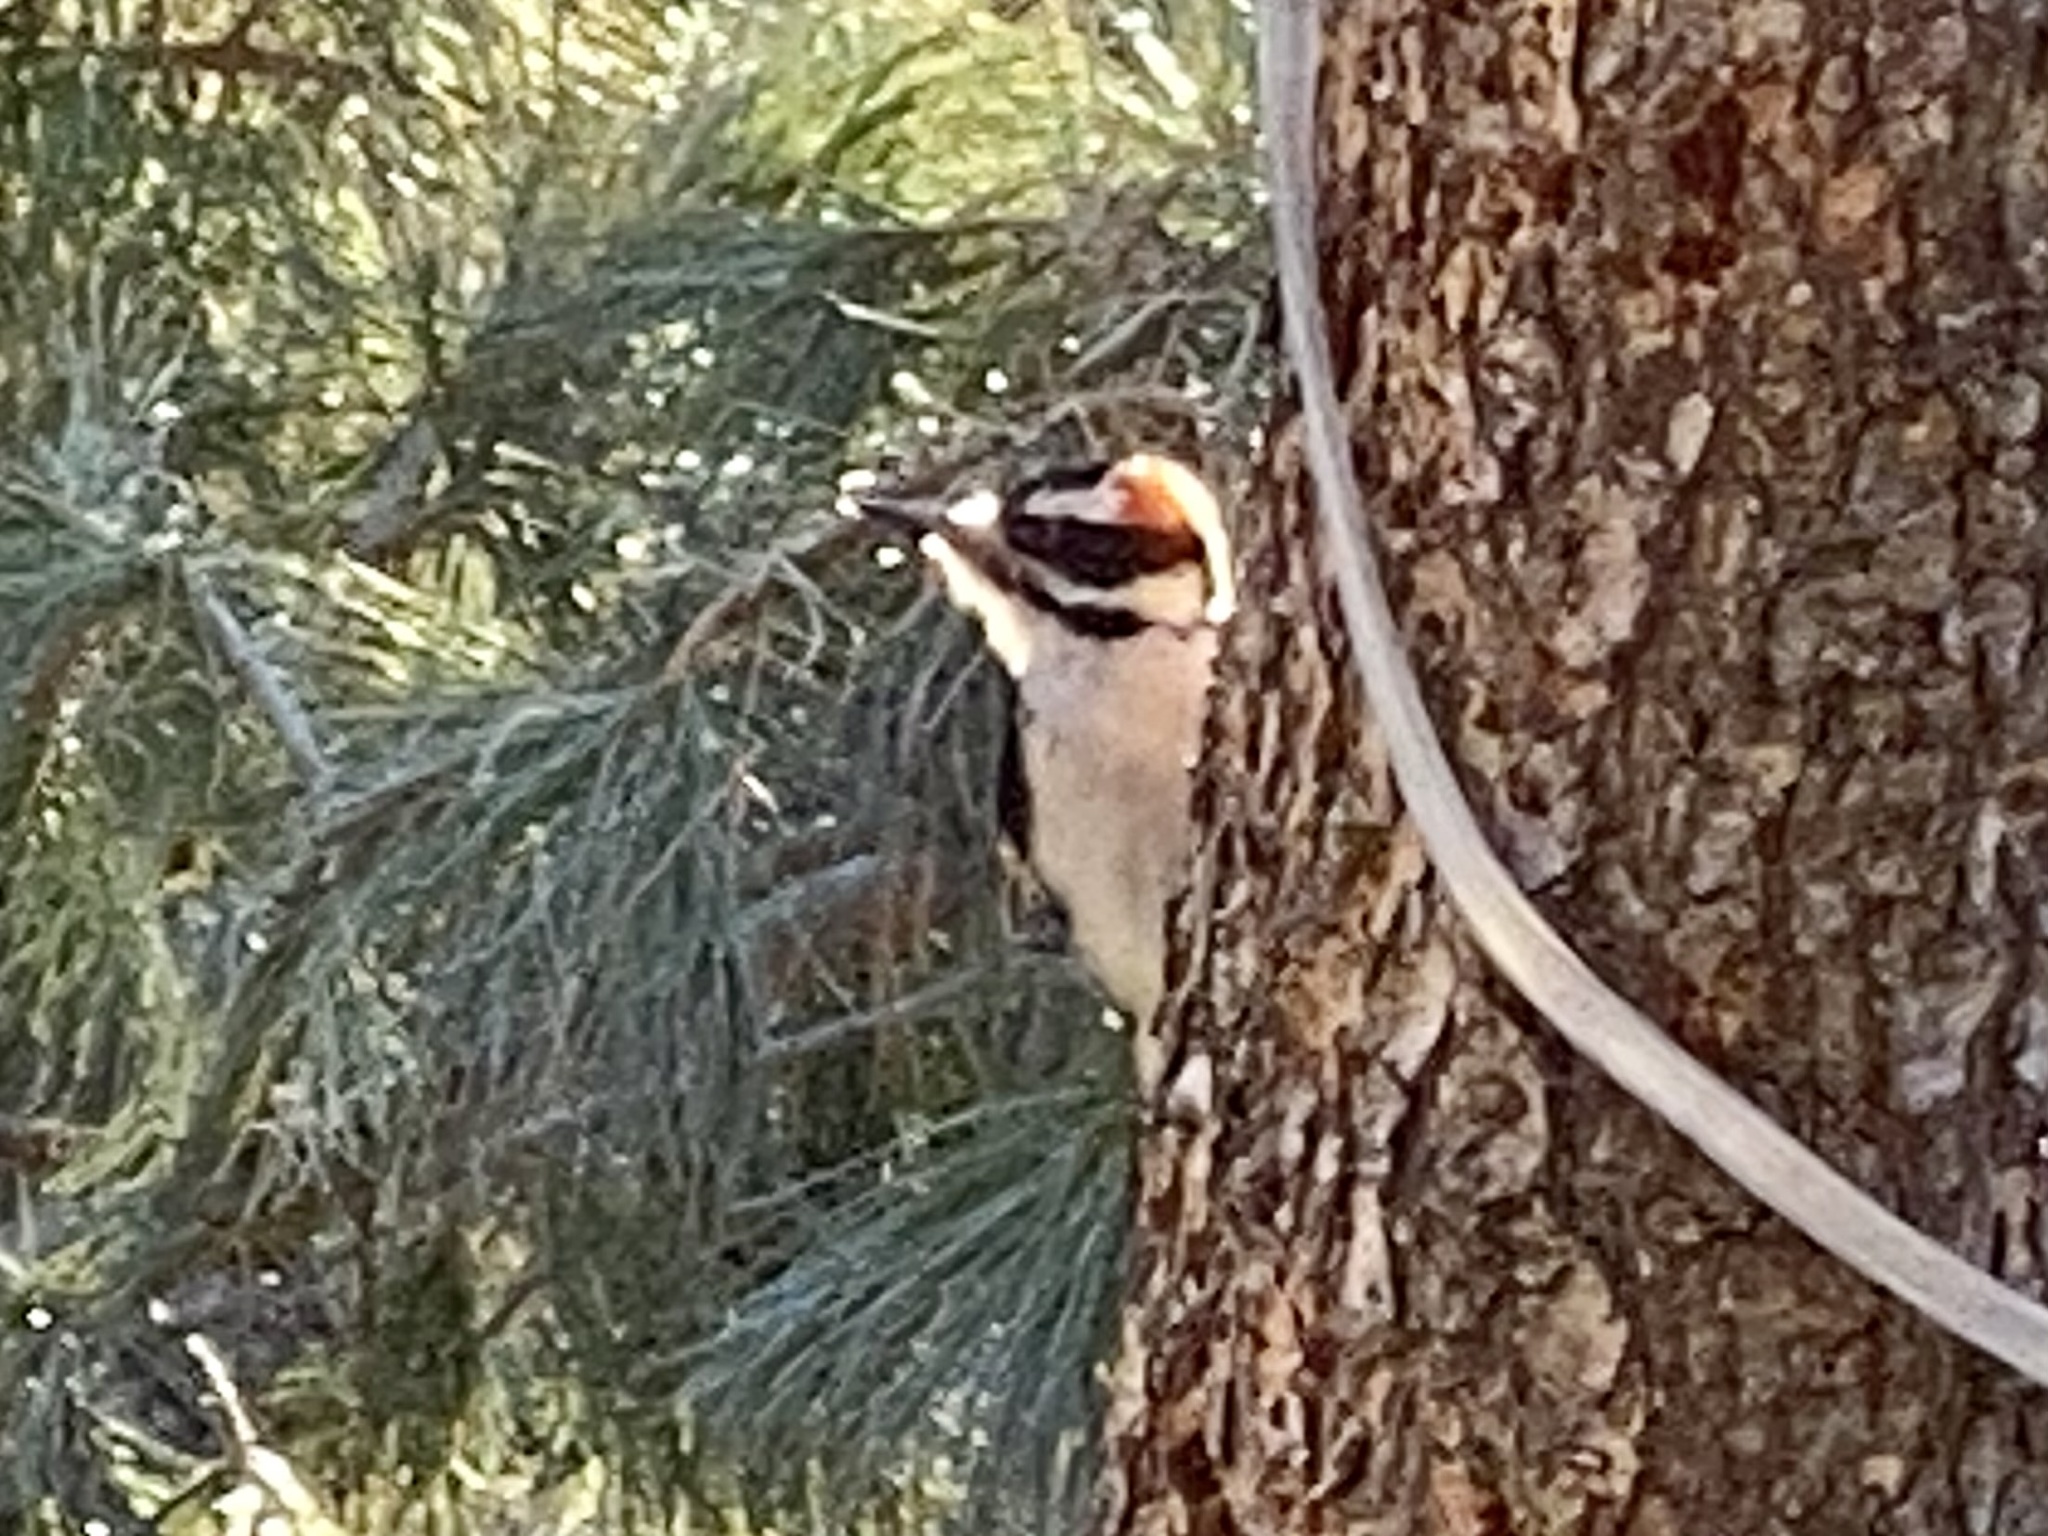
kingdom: Animalia
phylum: Chordata
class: Aves
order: Piciformes
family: Picidae
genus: Dryobates
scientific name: Dryobates pubescens
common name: Downy woodpecker
